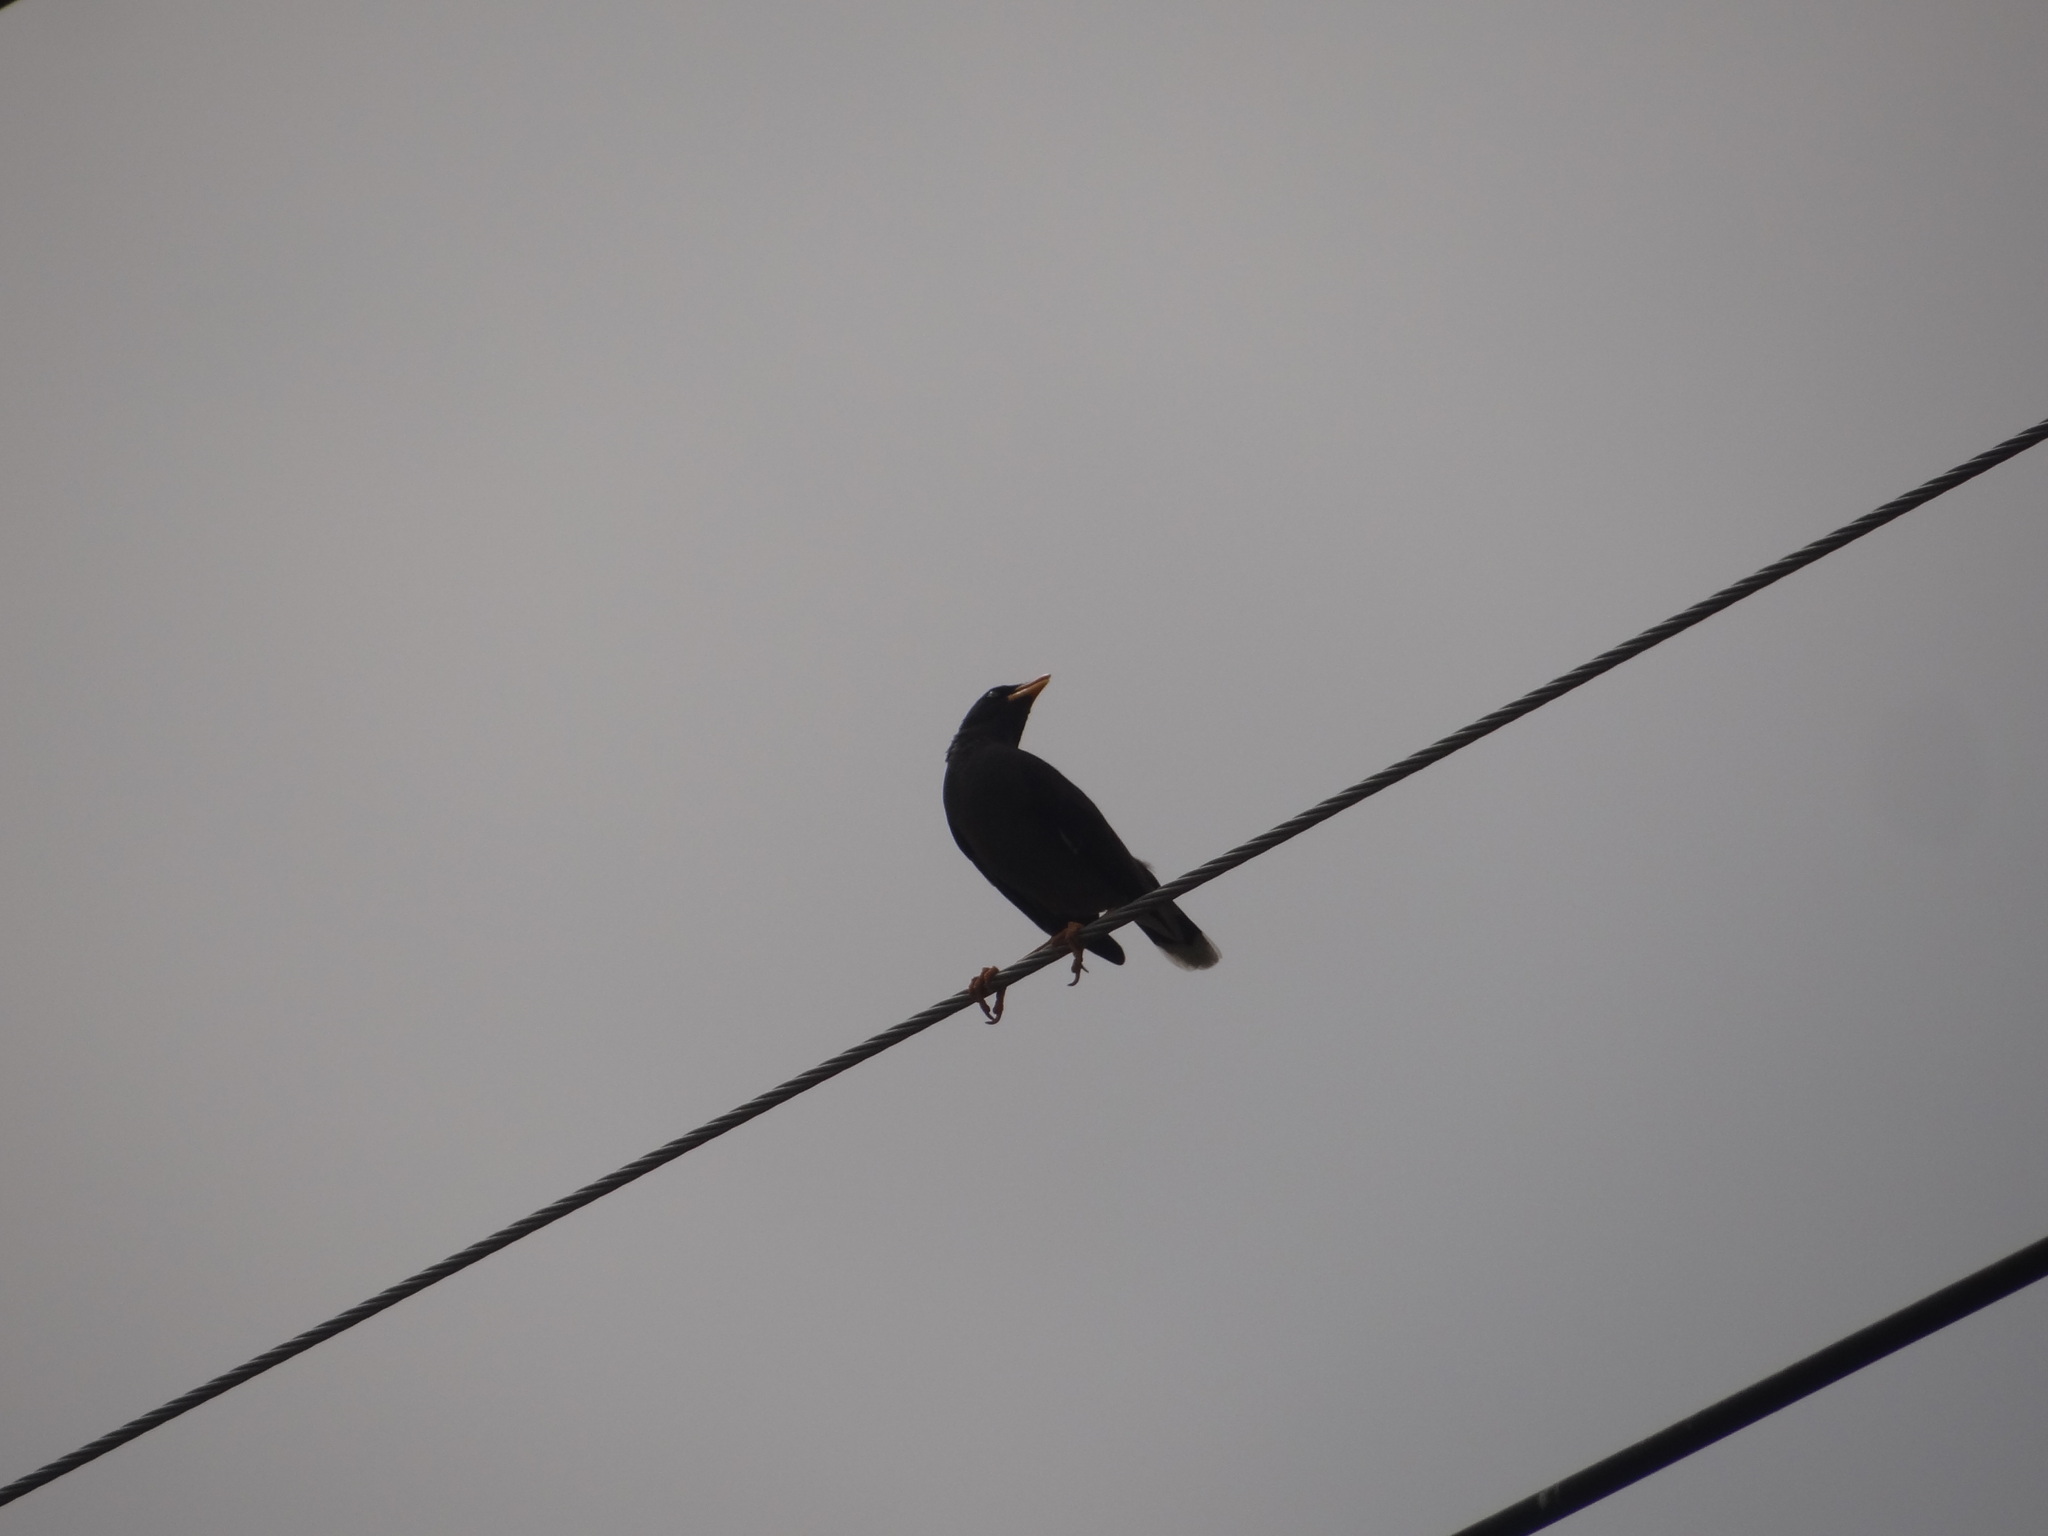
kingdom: Animalia
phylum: Chordata
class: Aves
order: Passeriformes
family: Sturnidae
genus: Acridotheres
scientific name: Acridotheres javanicus
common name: Javan myna
